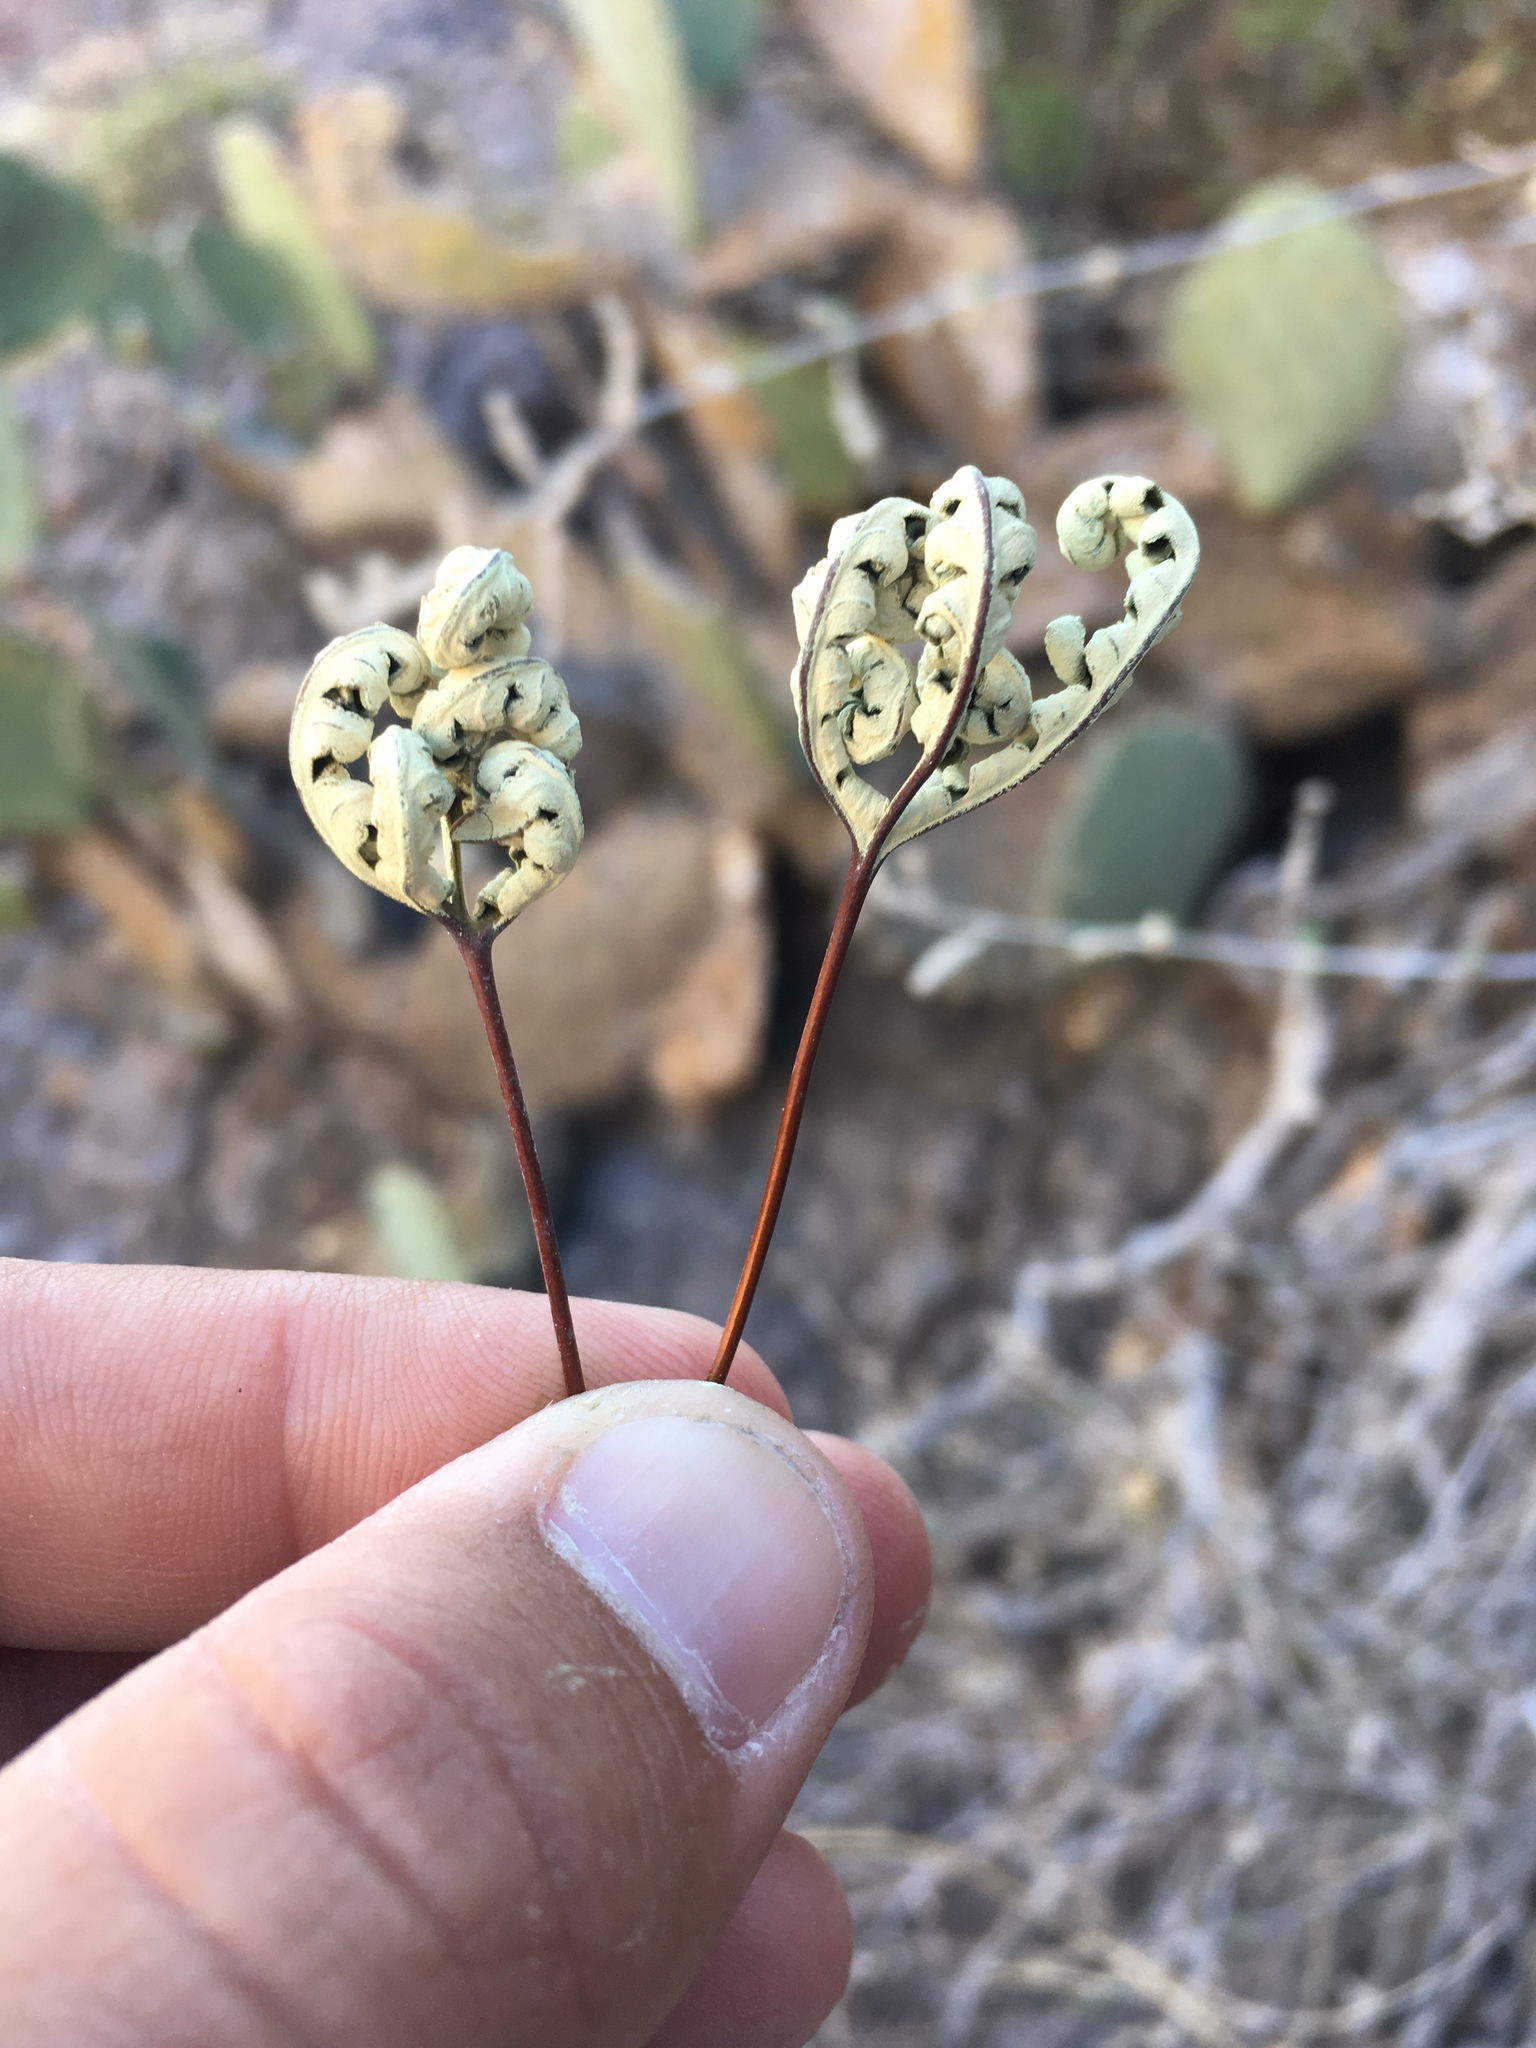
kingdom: Plantae
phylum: Tracheophyta
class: Polypodiopsida
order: Polypodiales
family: Pteridaceae
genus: Notholaena
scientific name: Notholaena standleyi
